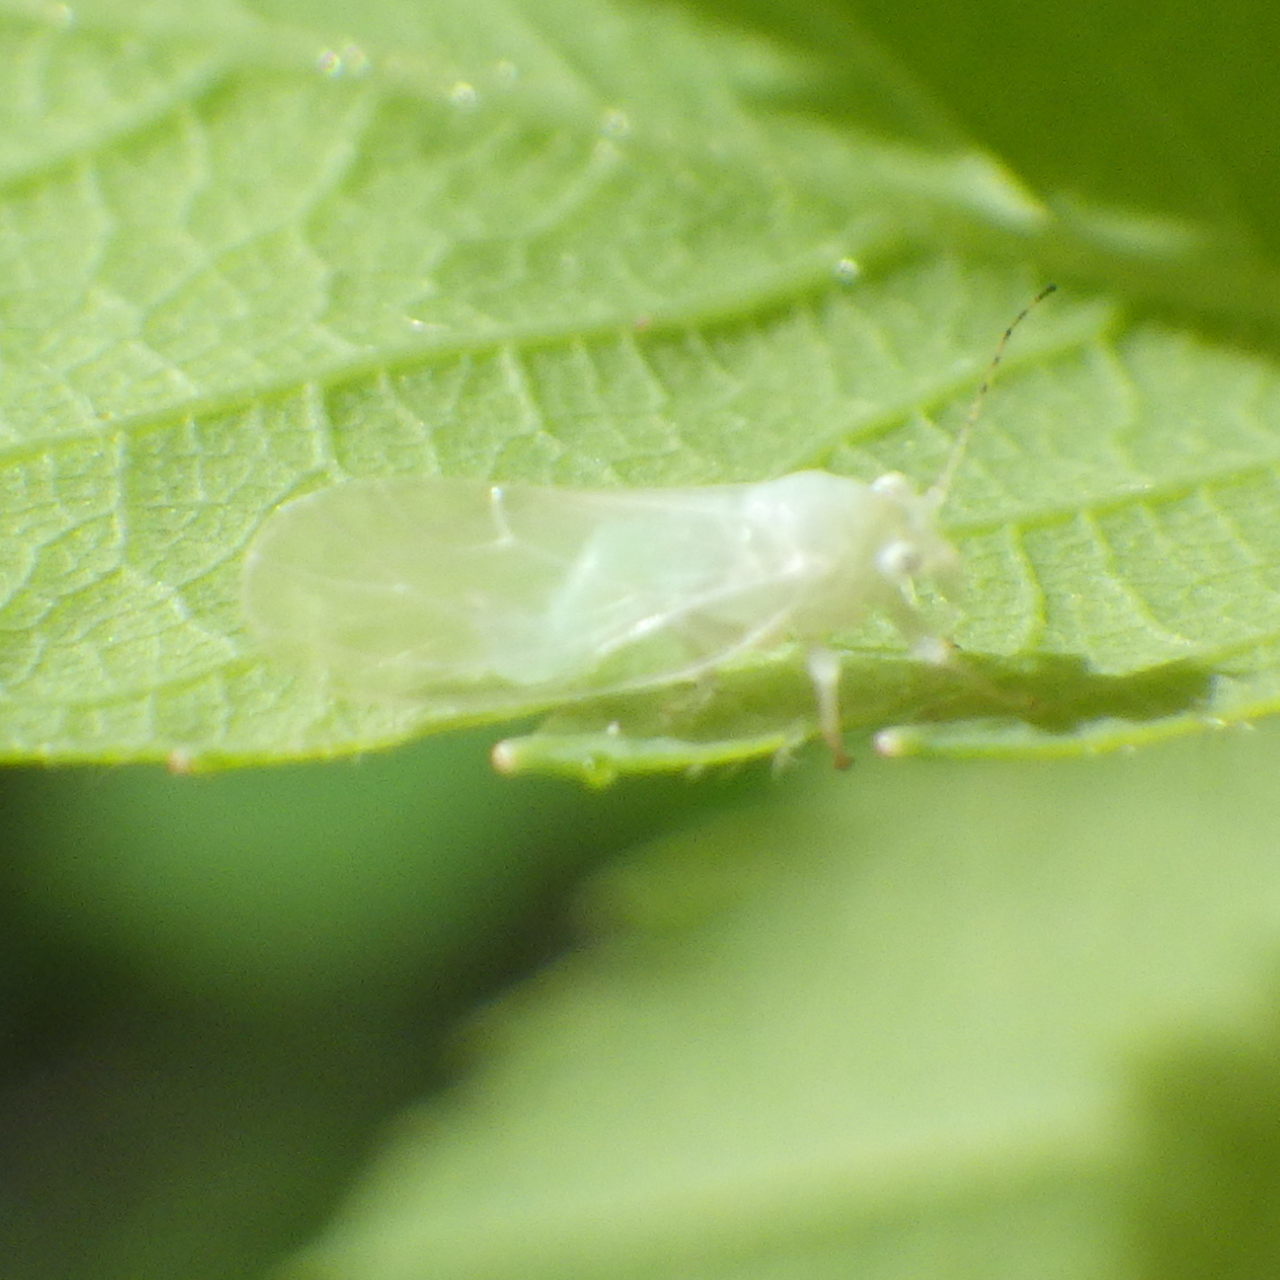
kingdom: Animalia
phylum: Arthropoda
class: Insecta
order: Hemiptera
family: Psyllidae
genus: Cacopsylla
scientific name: Cacopsylla annulata
